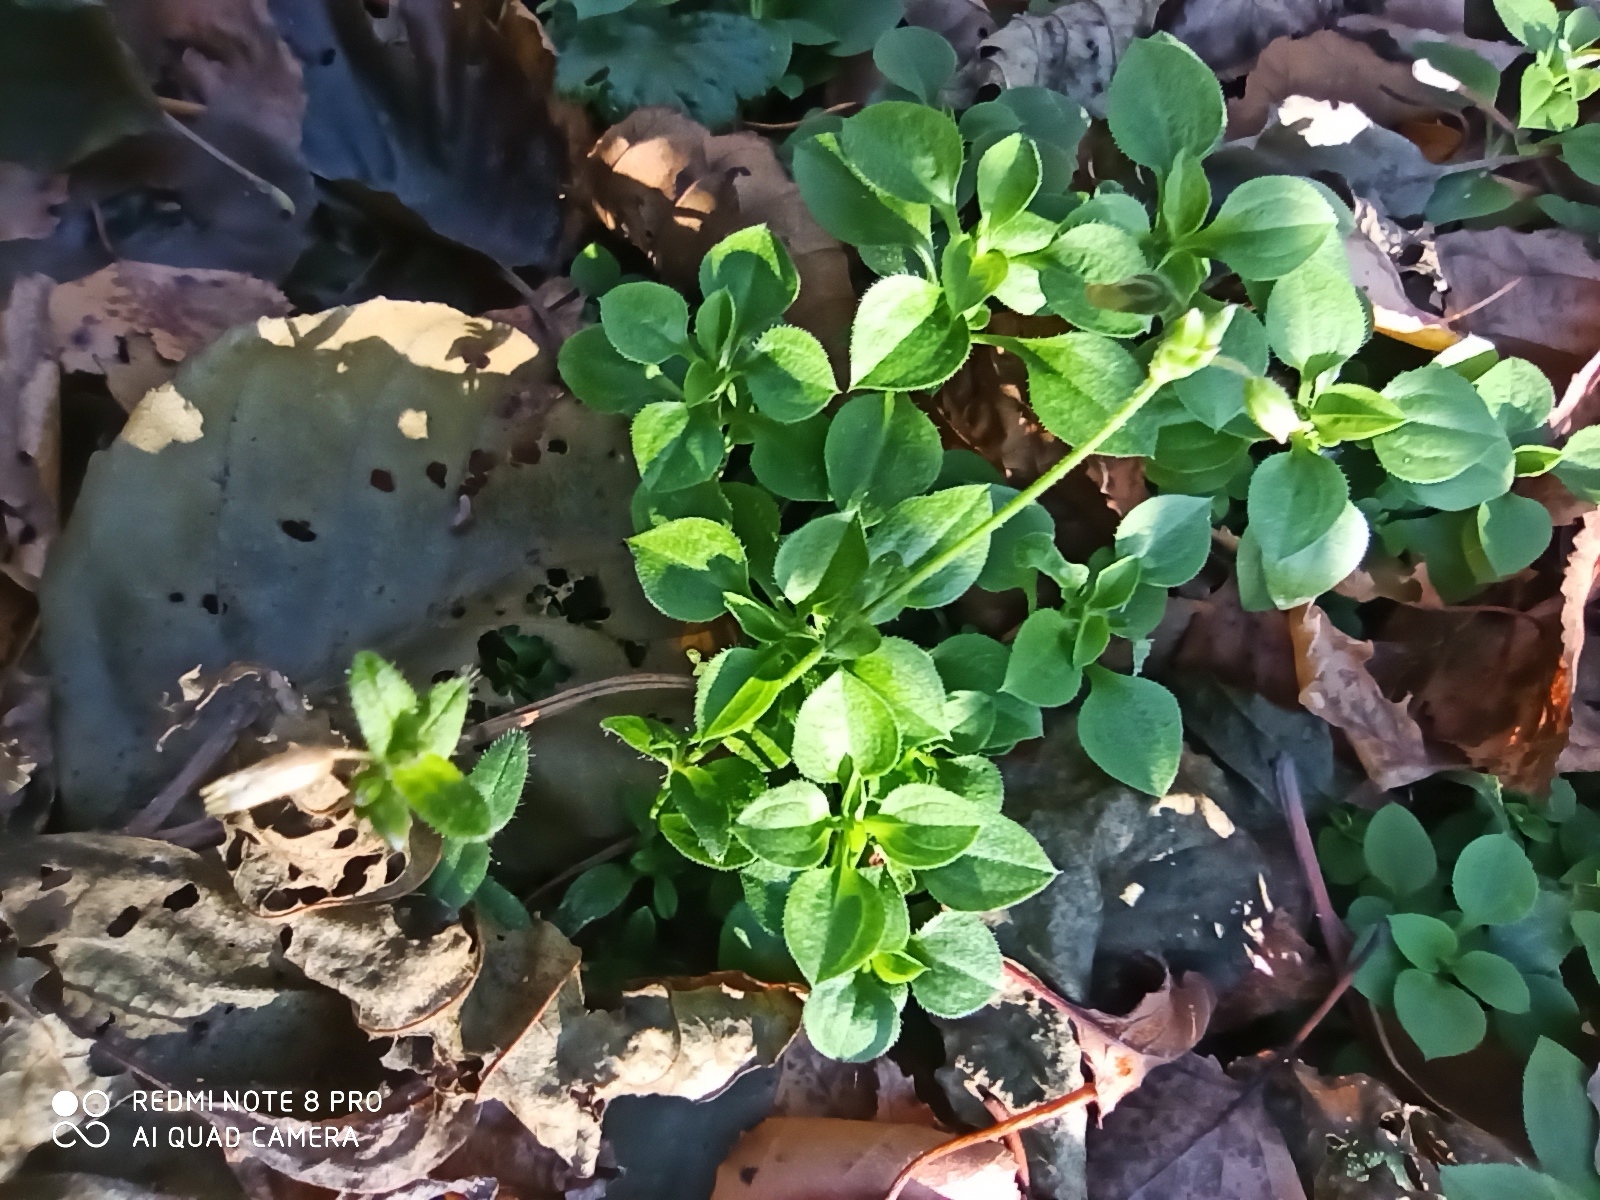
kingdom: Plantae
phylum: Tracheophyta
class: Magnoliopsida
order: Caryophyllales
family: Caryophyllaceae
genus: Moehringia
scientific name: Moehringia trinervia
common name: Three-nerved sandwort
